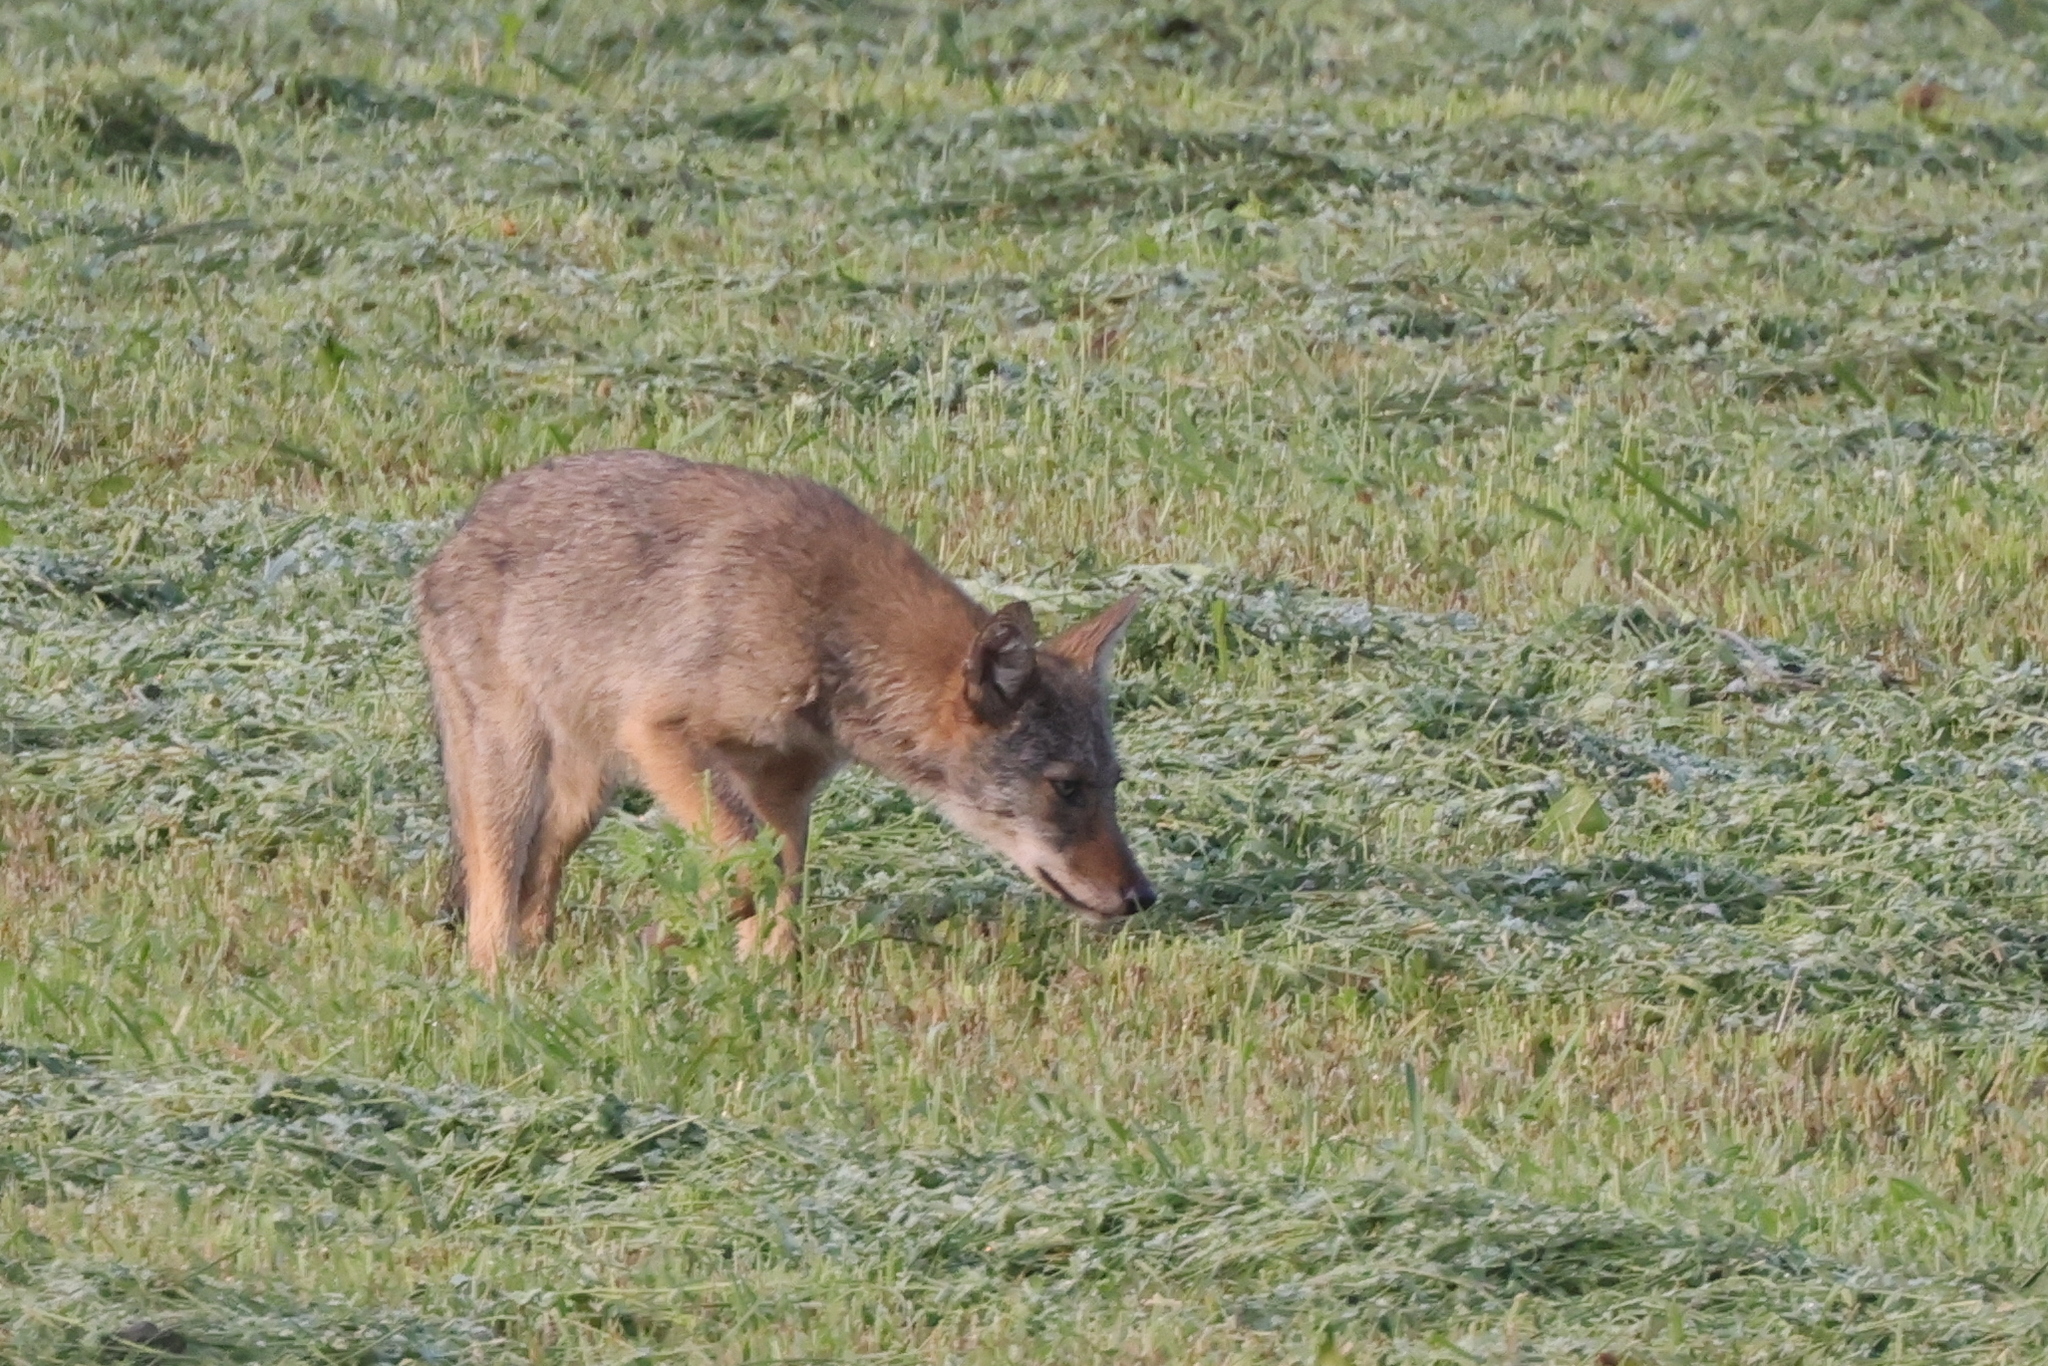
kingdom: Animalia
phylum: Chordata
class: Mammalia
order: Carnivora
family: Canidae
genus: Canis
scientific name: Canis latrans
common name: Coyote
